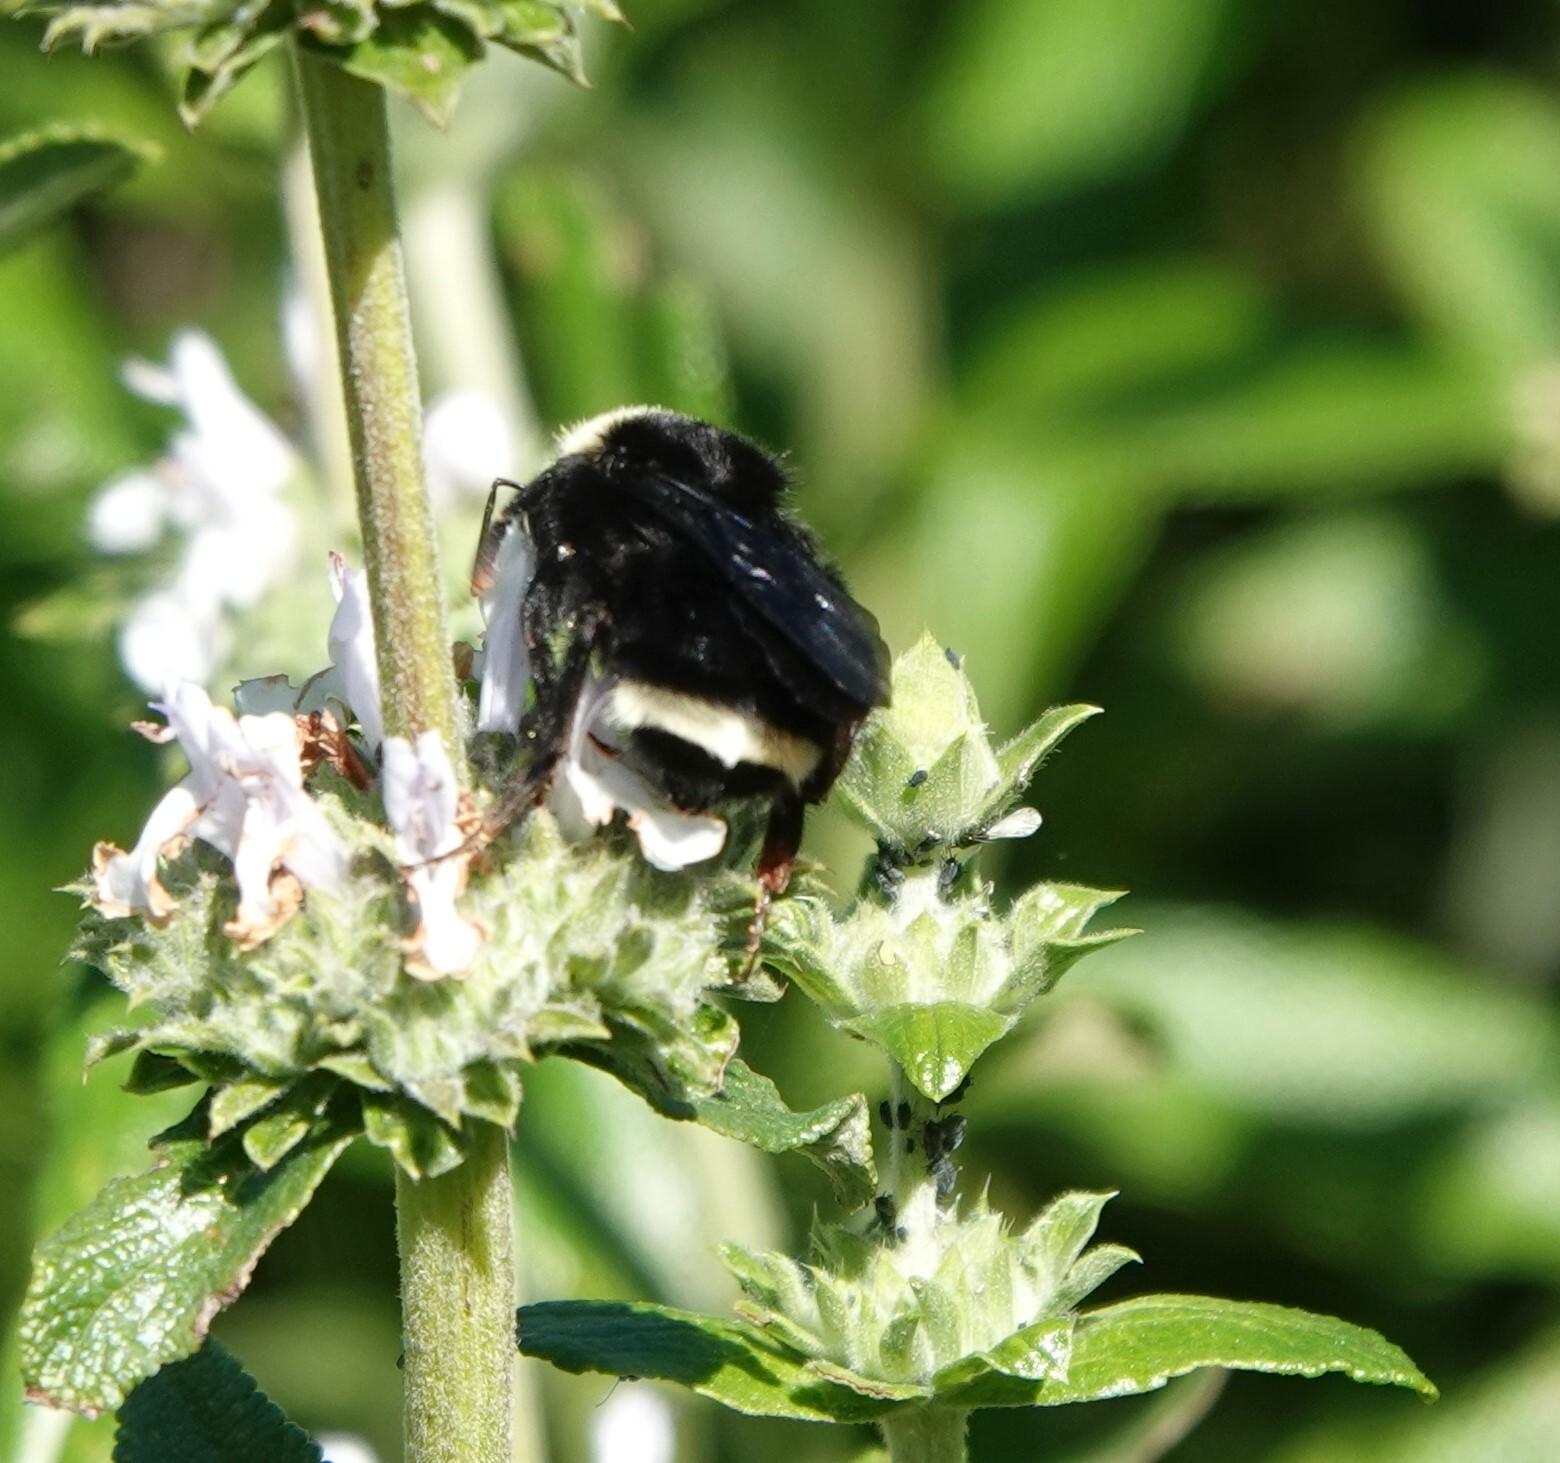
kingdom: Animalia
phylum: Arthropoda
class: Insecta
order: Hymenoptera
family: Apidae
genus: Bombus
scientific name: Bombus vosnesenskii
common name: Vosnesensky bumble bee
